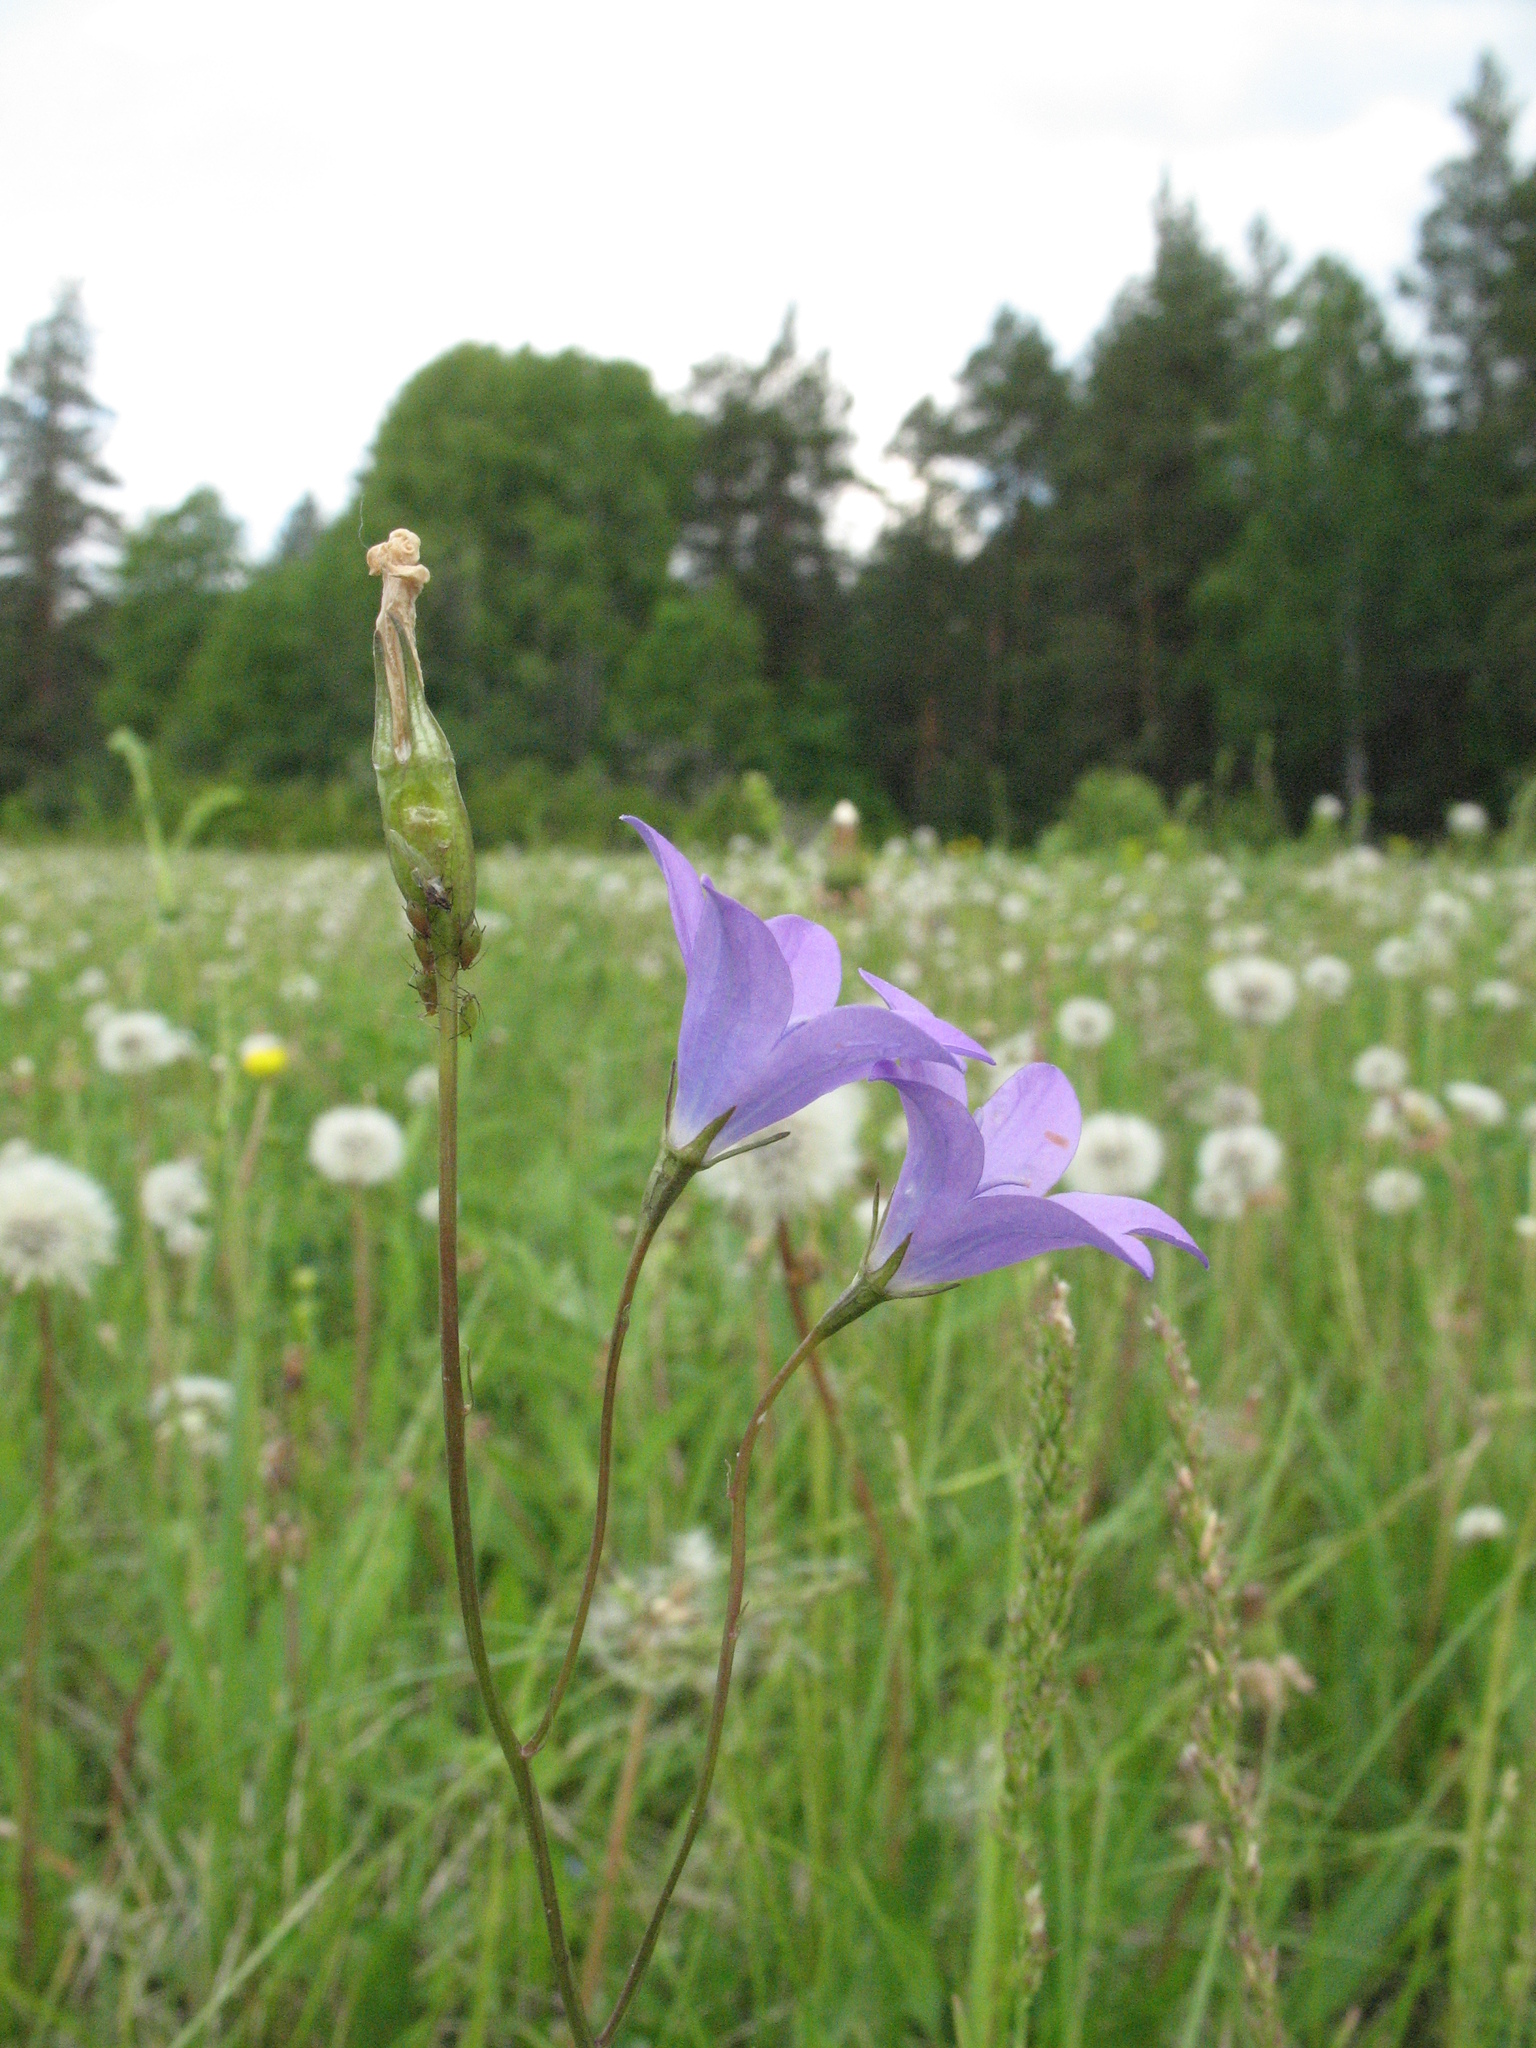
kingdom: Plantae
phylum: Tracheophyta
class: Magnoliopsida
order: Asterales
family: Campanulaceae
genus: Campanula
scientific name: Campanula stevenii
